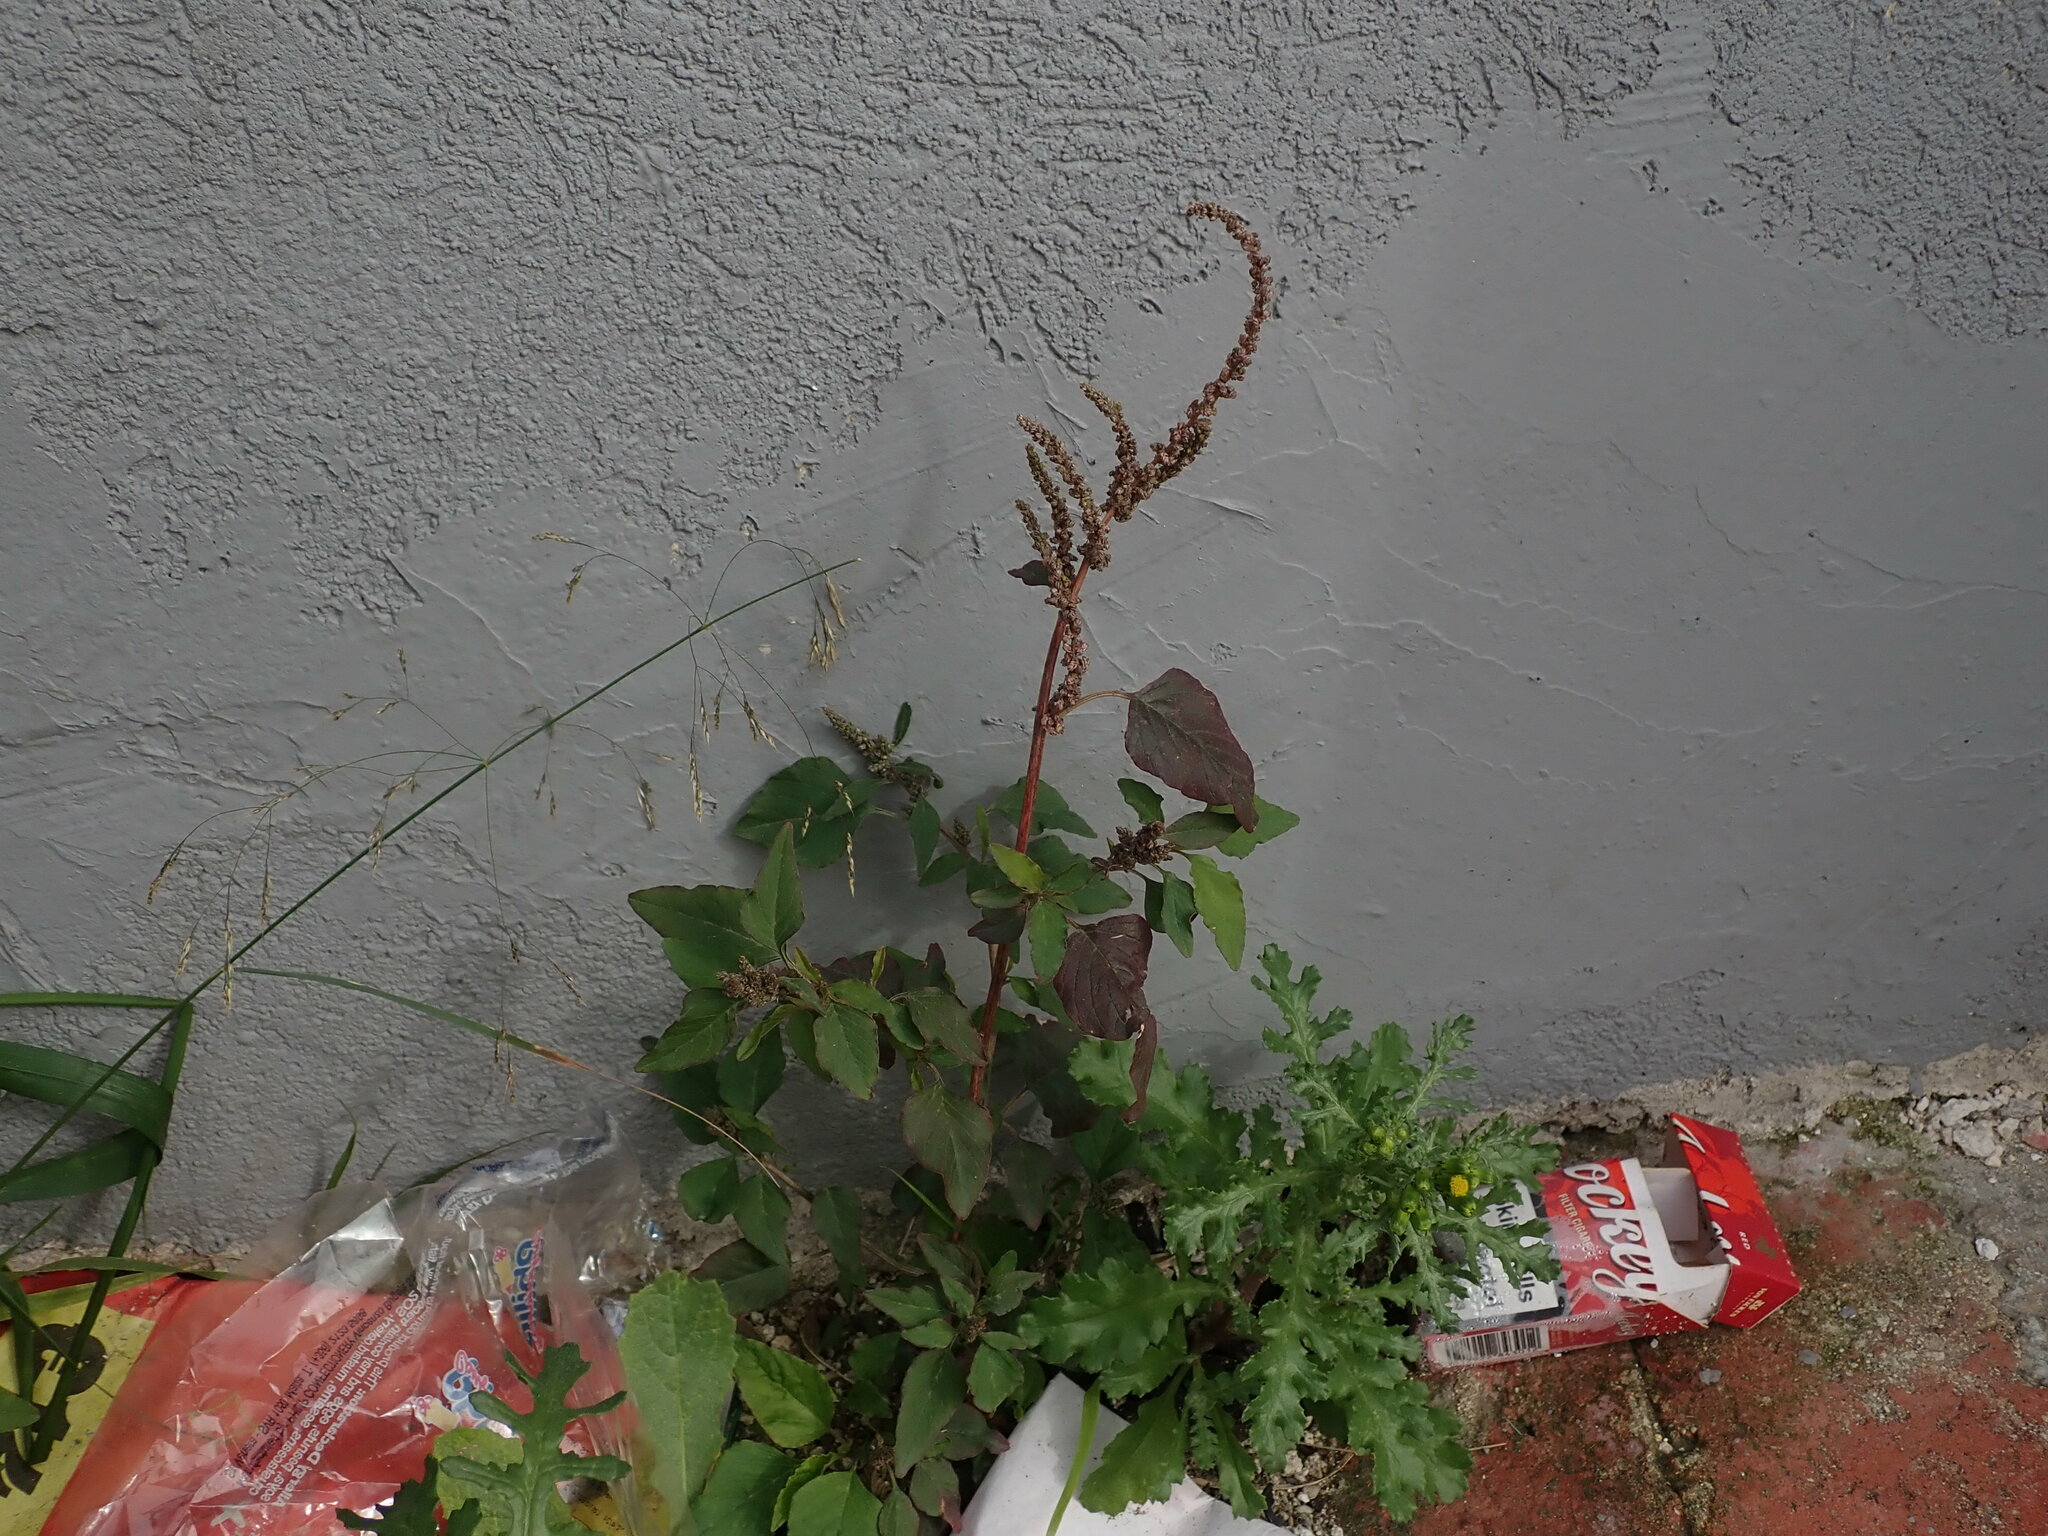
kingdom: Plantae
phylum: Tracheophyta
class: Magnoliopsida
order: Caryophyllales
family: Amaranthaceae
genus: Amaranthus
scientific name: Amaranthus viridis
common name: Slender amaranth
